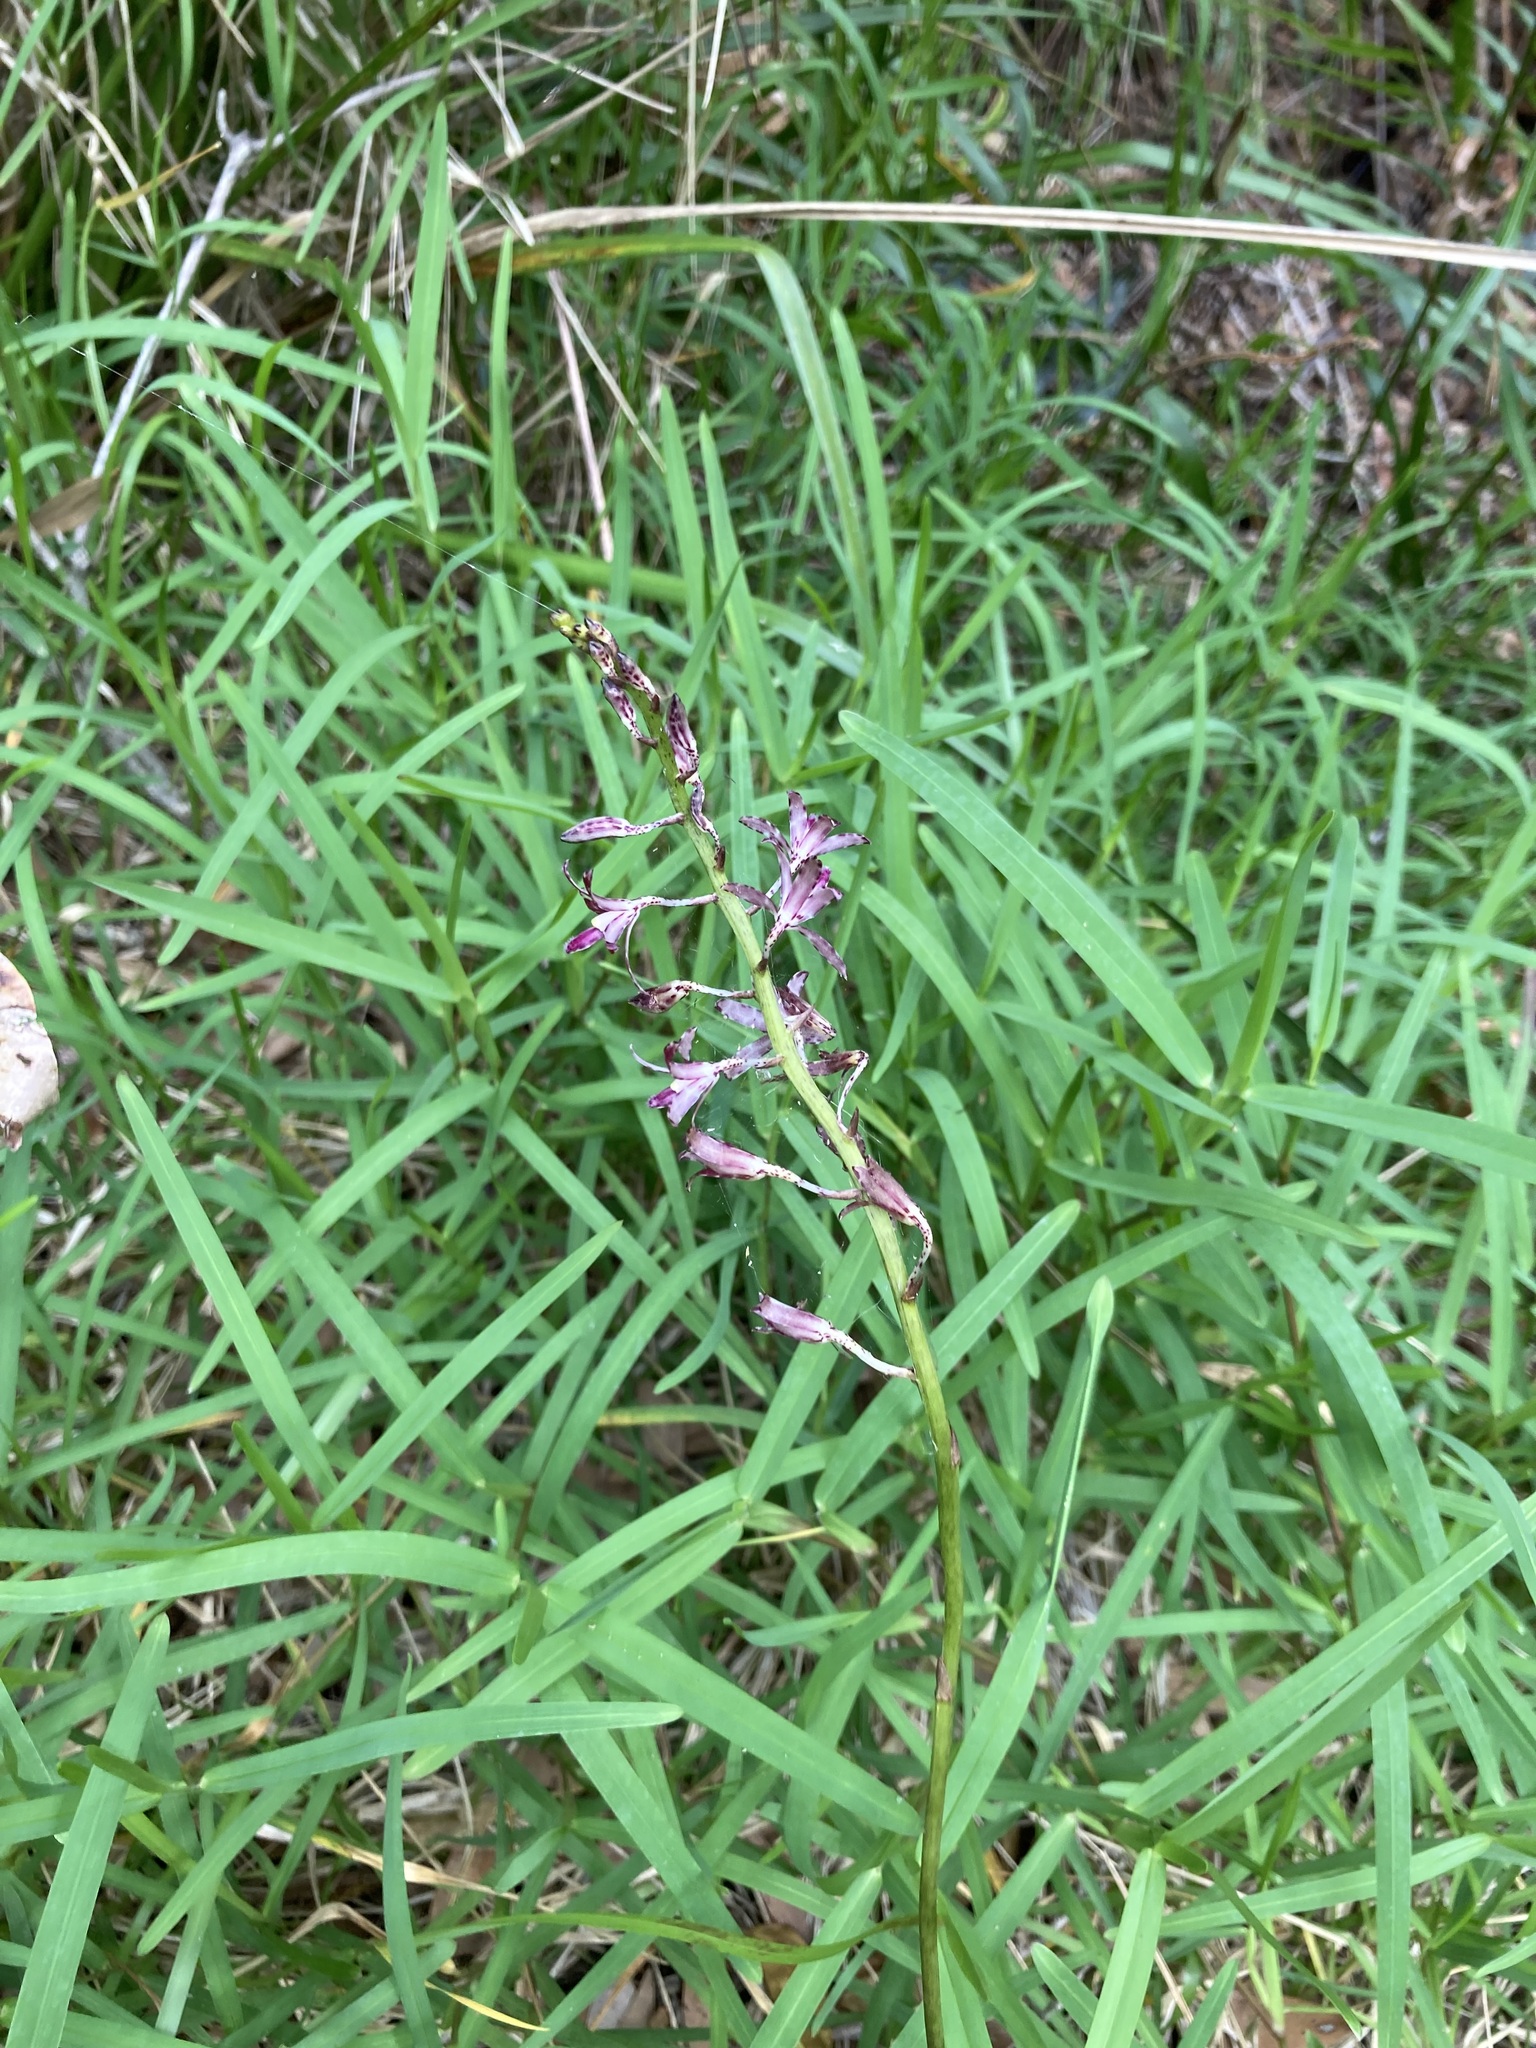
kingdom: Plantae
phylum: Tracheophyta
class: Liliopsida
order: Asparagales
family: Orchidaceae
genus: Dipodium
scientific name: Dipodium variegatum
